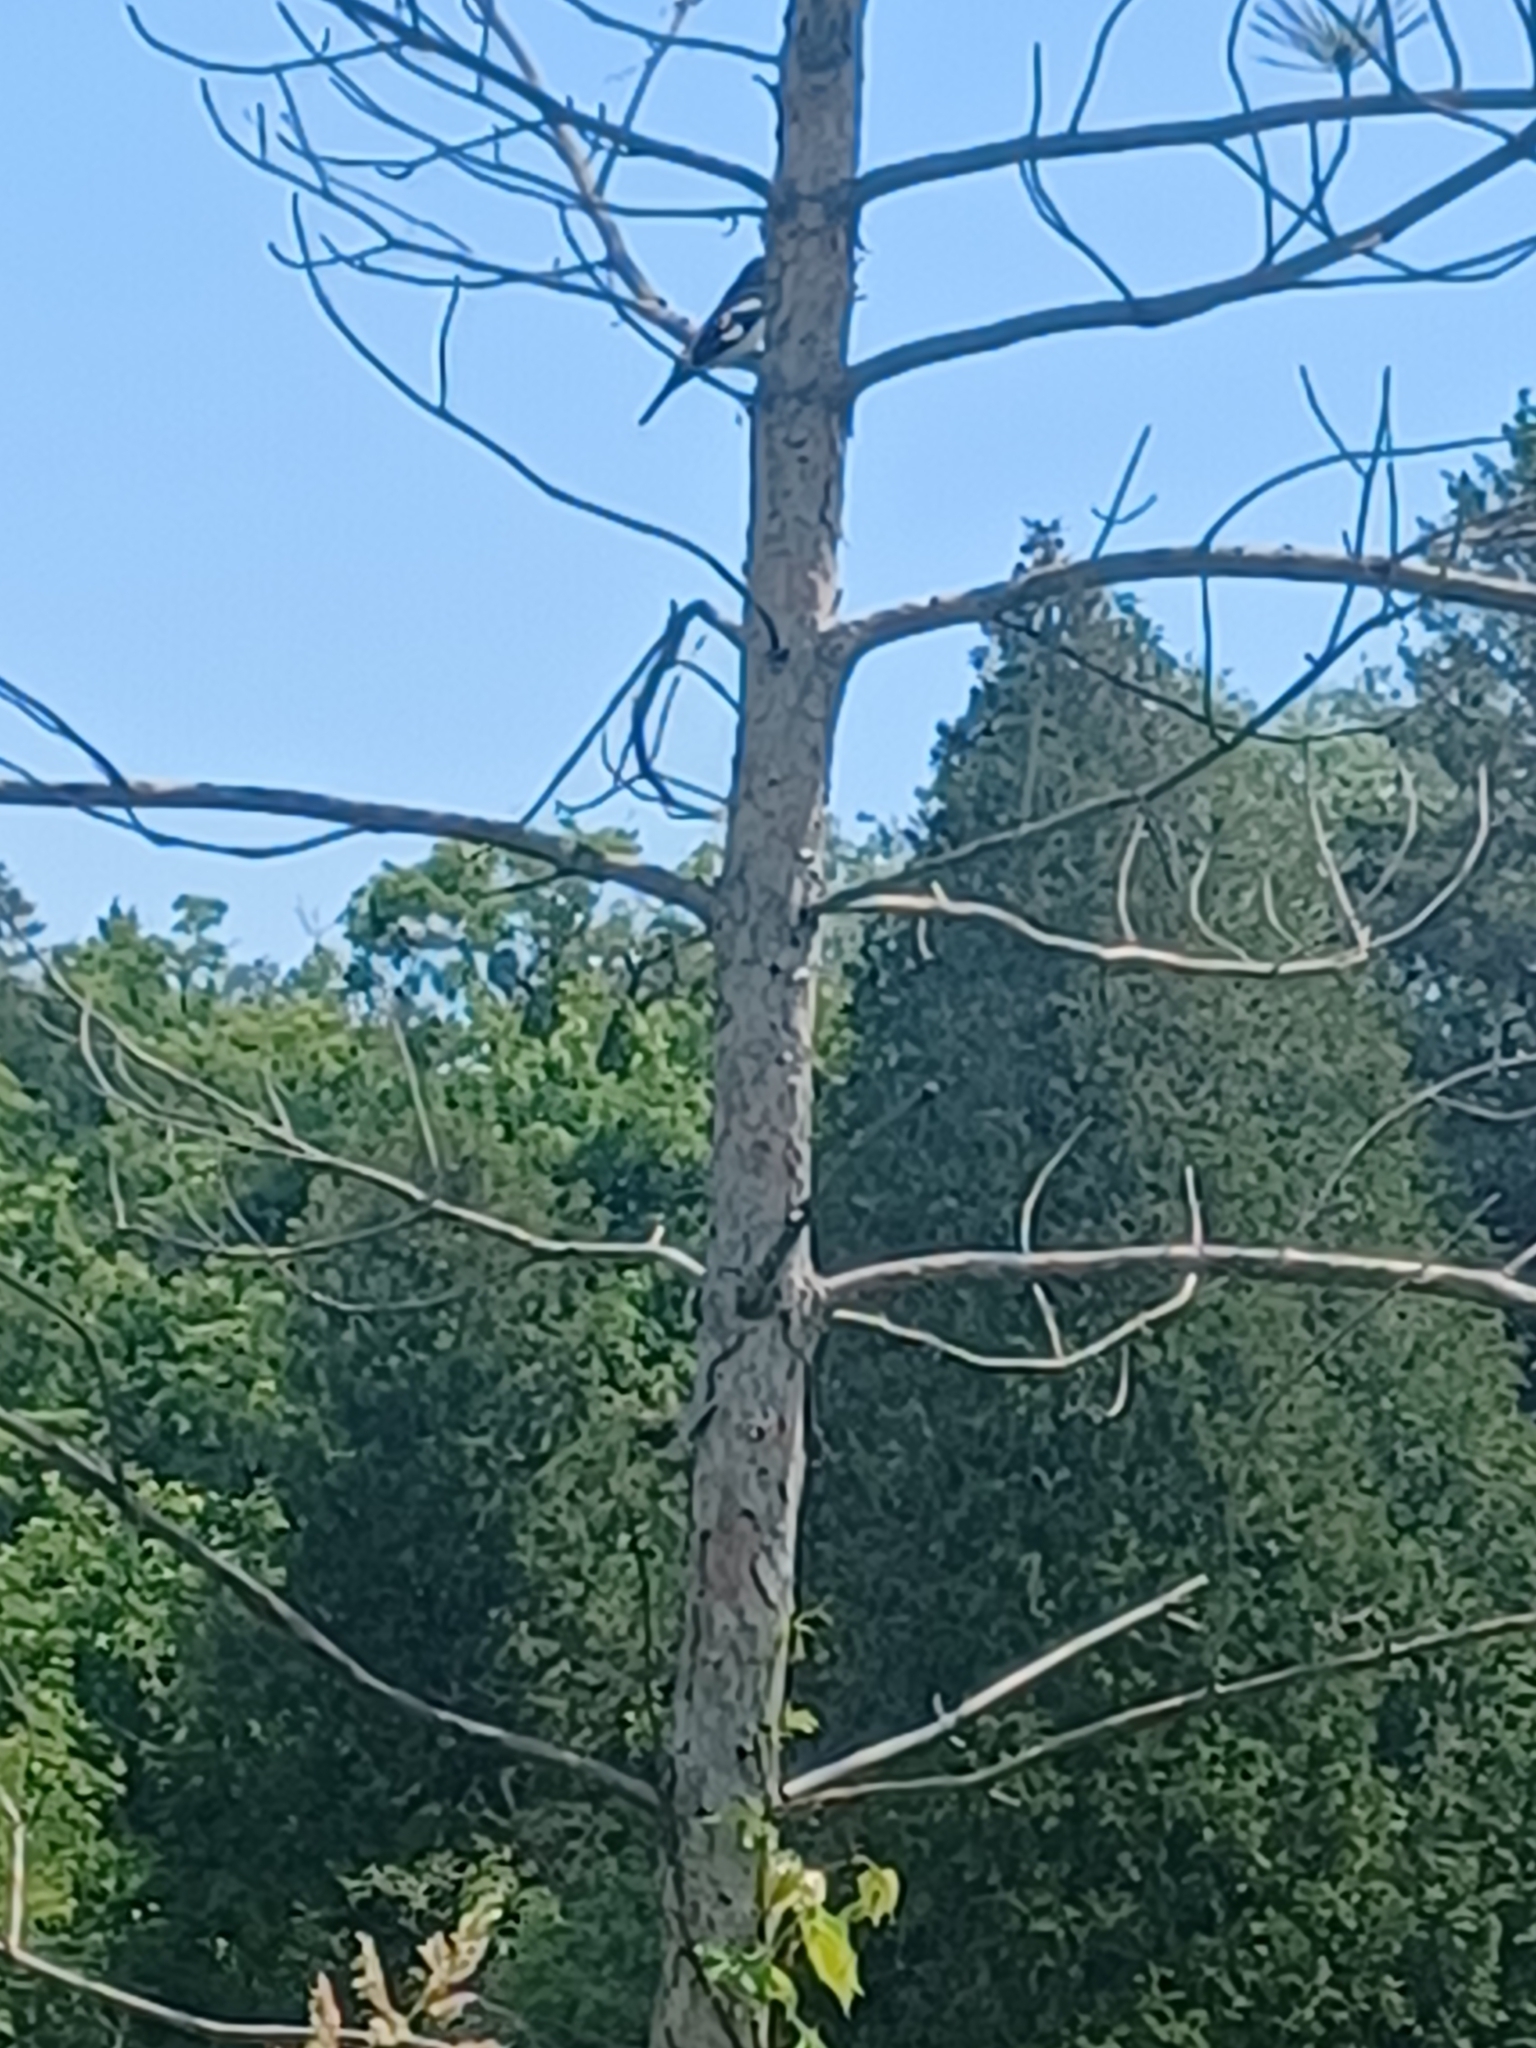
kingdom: Animalia
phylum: Chordata
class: Aves
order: Passeriformes
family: Cardinalidae
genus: Pheucticus
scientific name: Pheucticus ludovicianus
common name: Rose-breasted grosbeak
